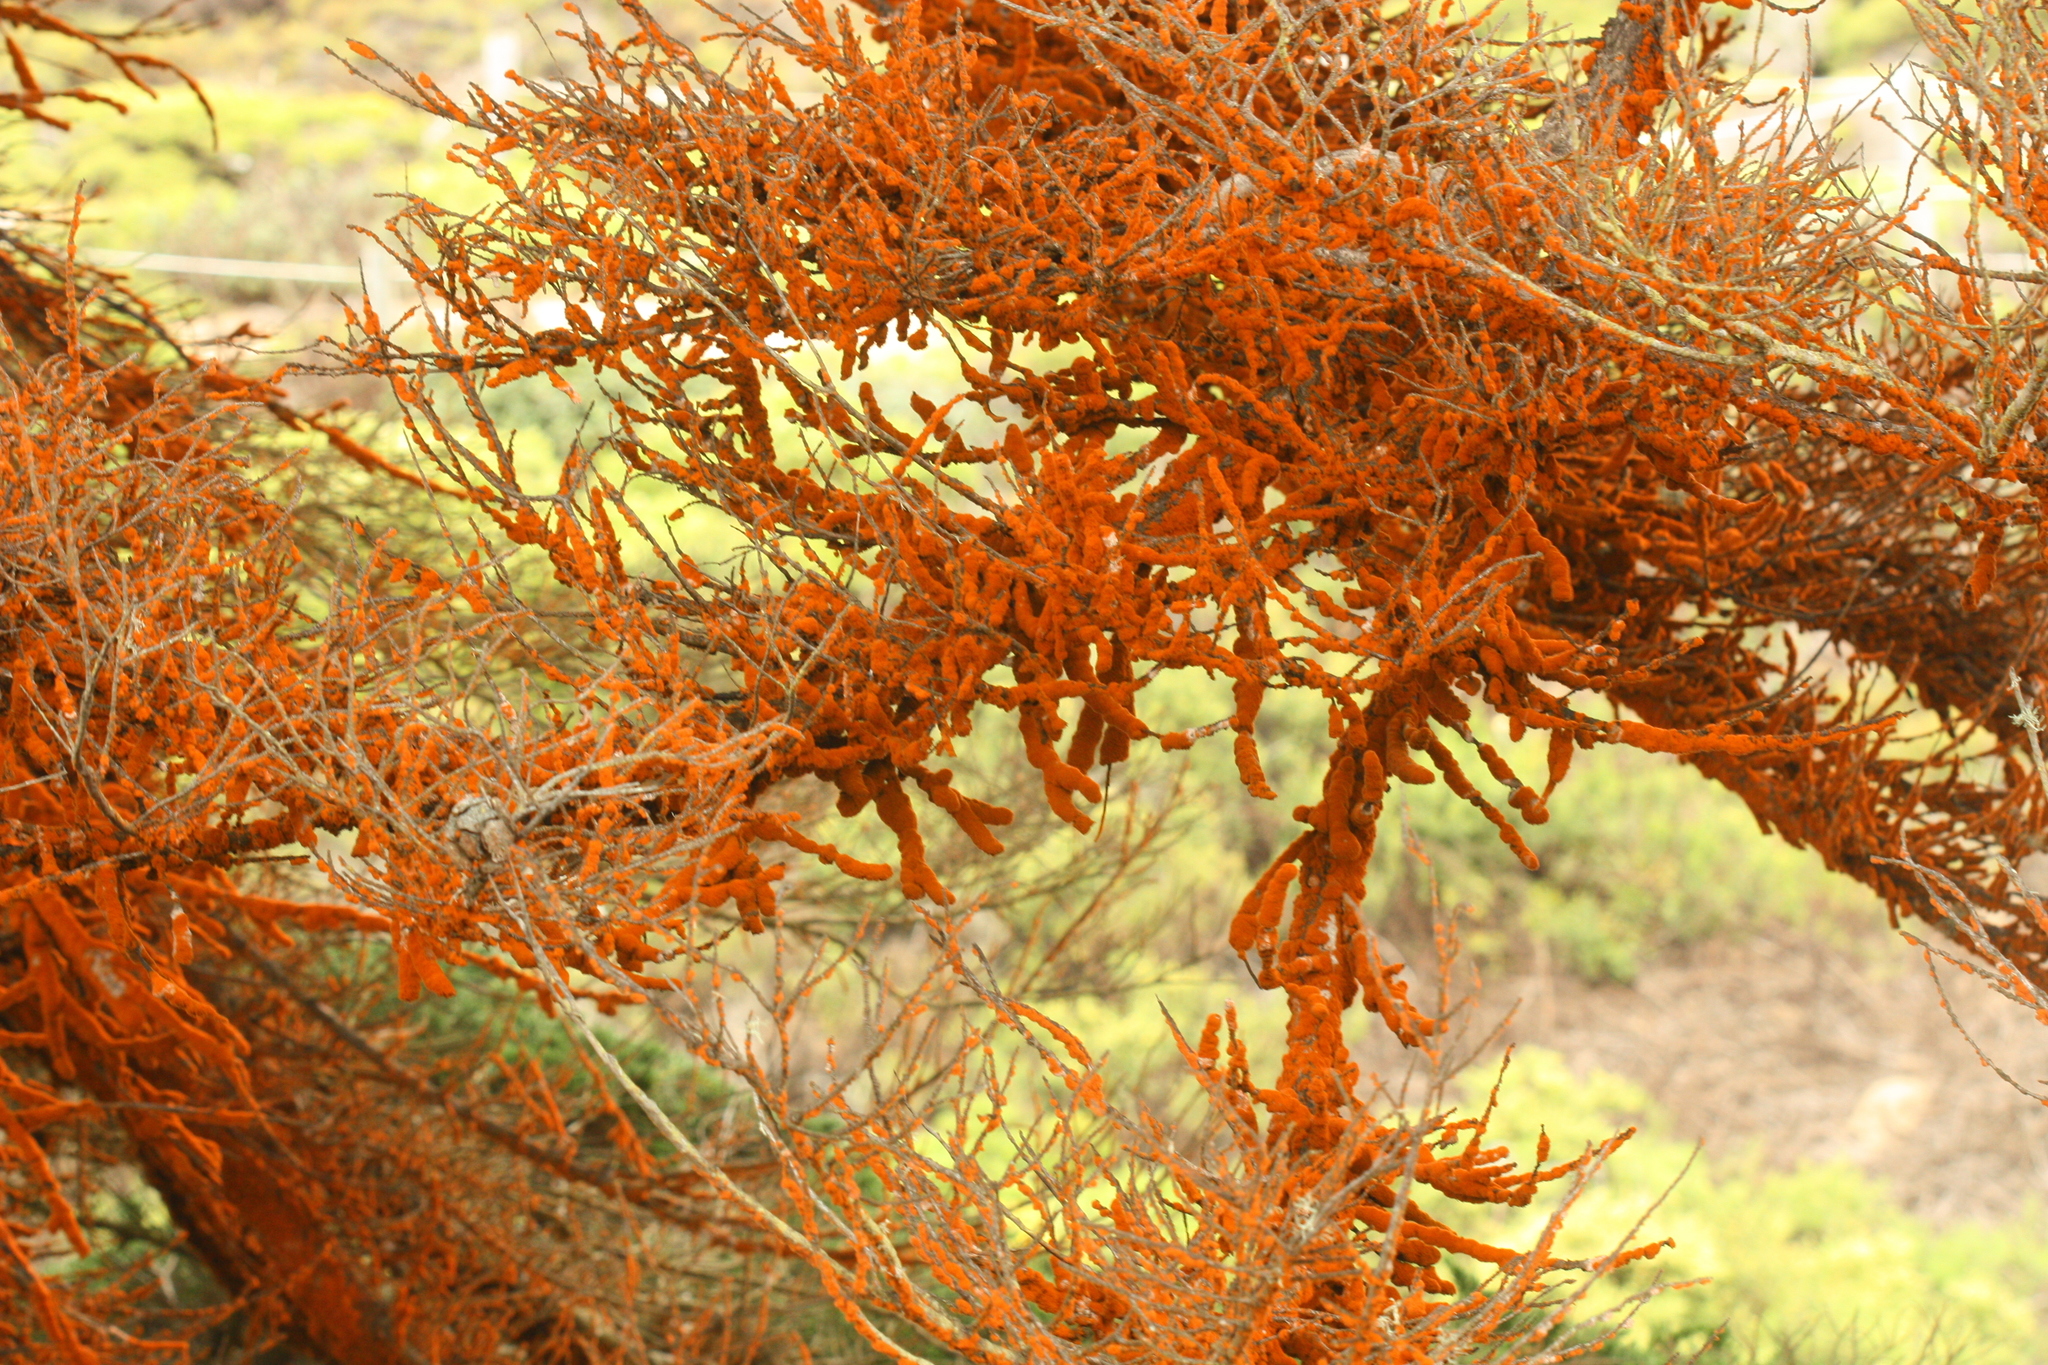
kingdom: Plantae
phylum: Chlorophyta
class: Ulvophyceae
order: Trentepohliales
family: Trentepohliaceae
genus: Trentepohlia
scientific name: Trentepohlia aurea
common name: Orange rock hair
